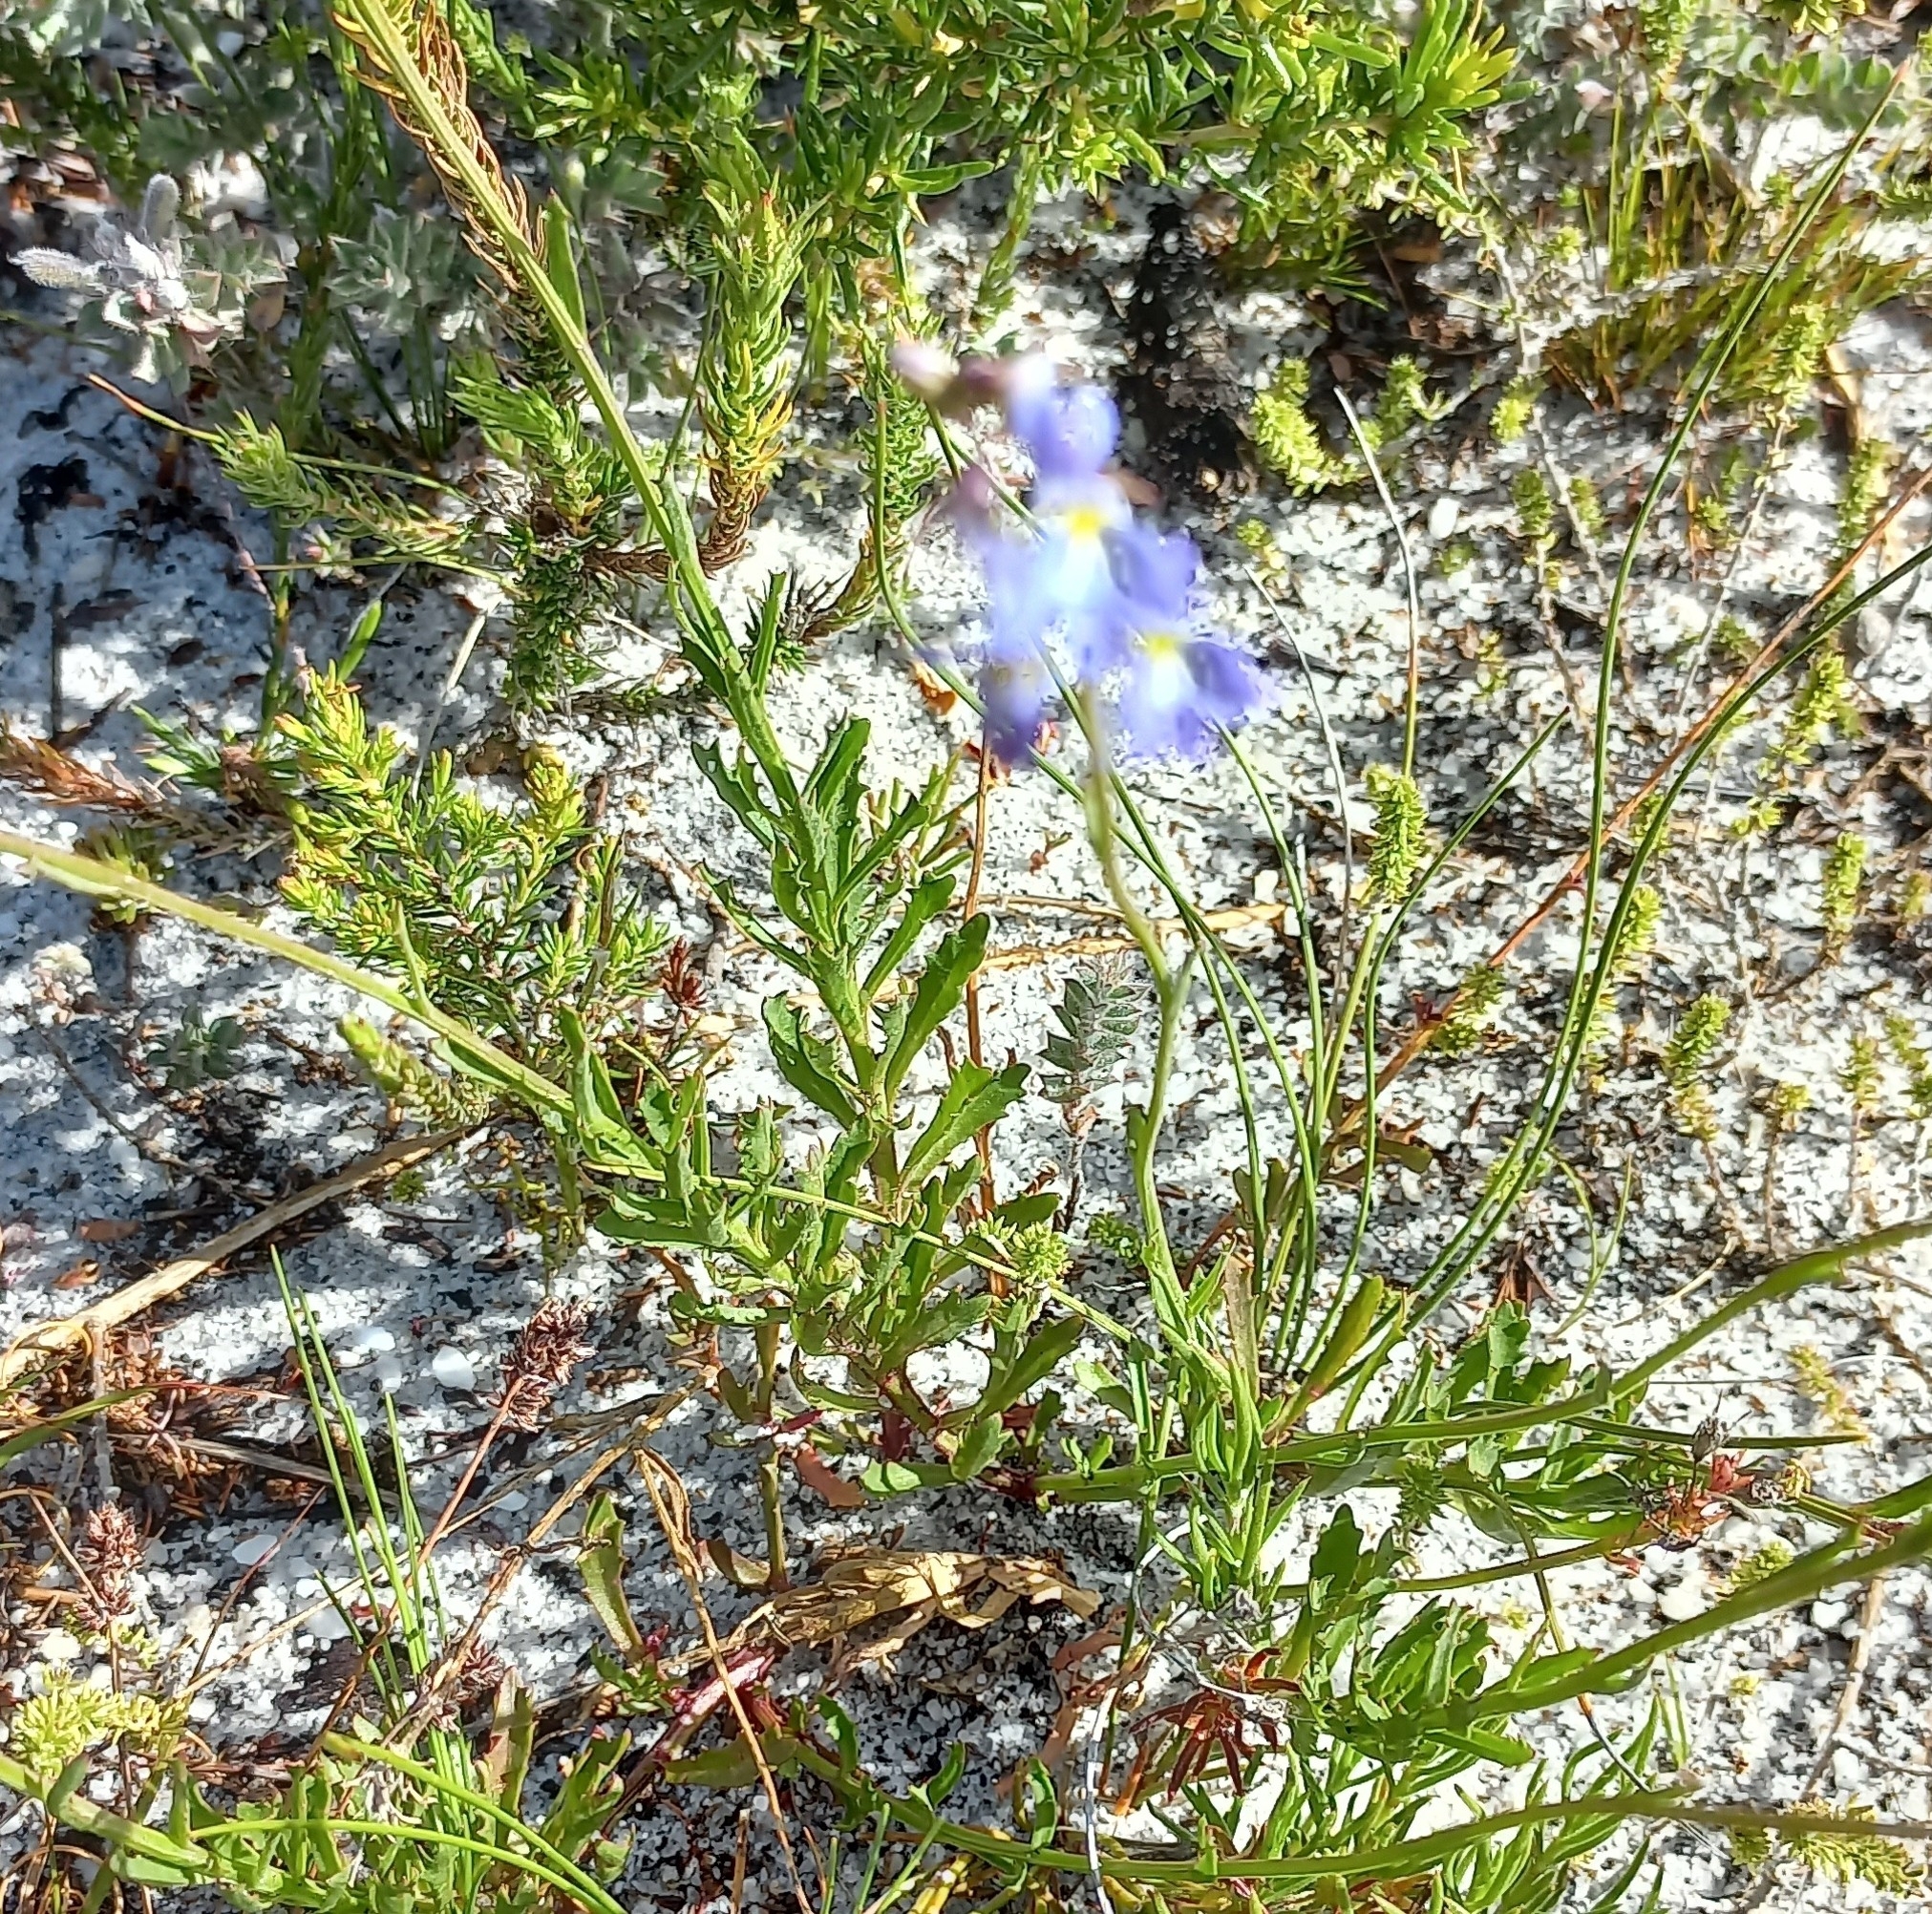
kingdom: Plantae
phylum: Tracheophyta
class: Magnoliopsida
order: Asterales
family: Campanulaceae
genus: Lobelia
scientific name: Lobelia comosa
